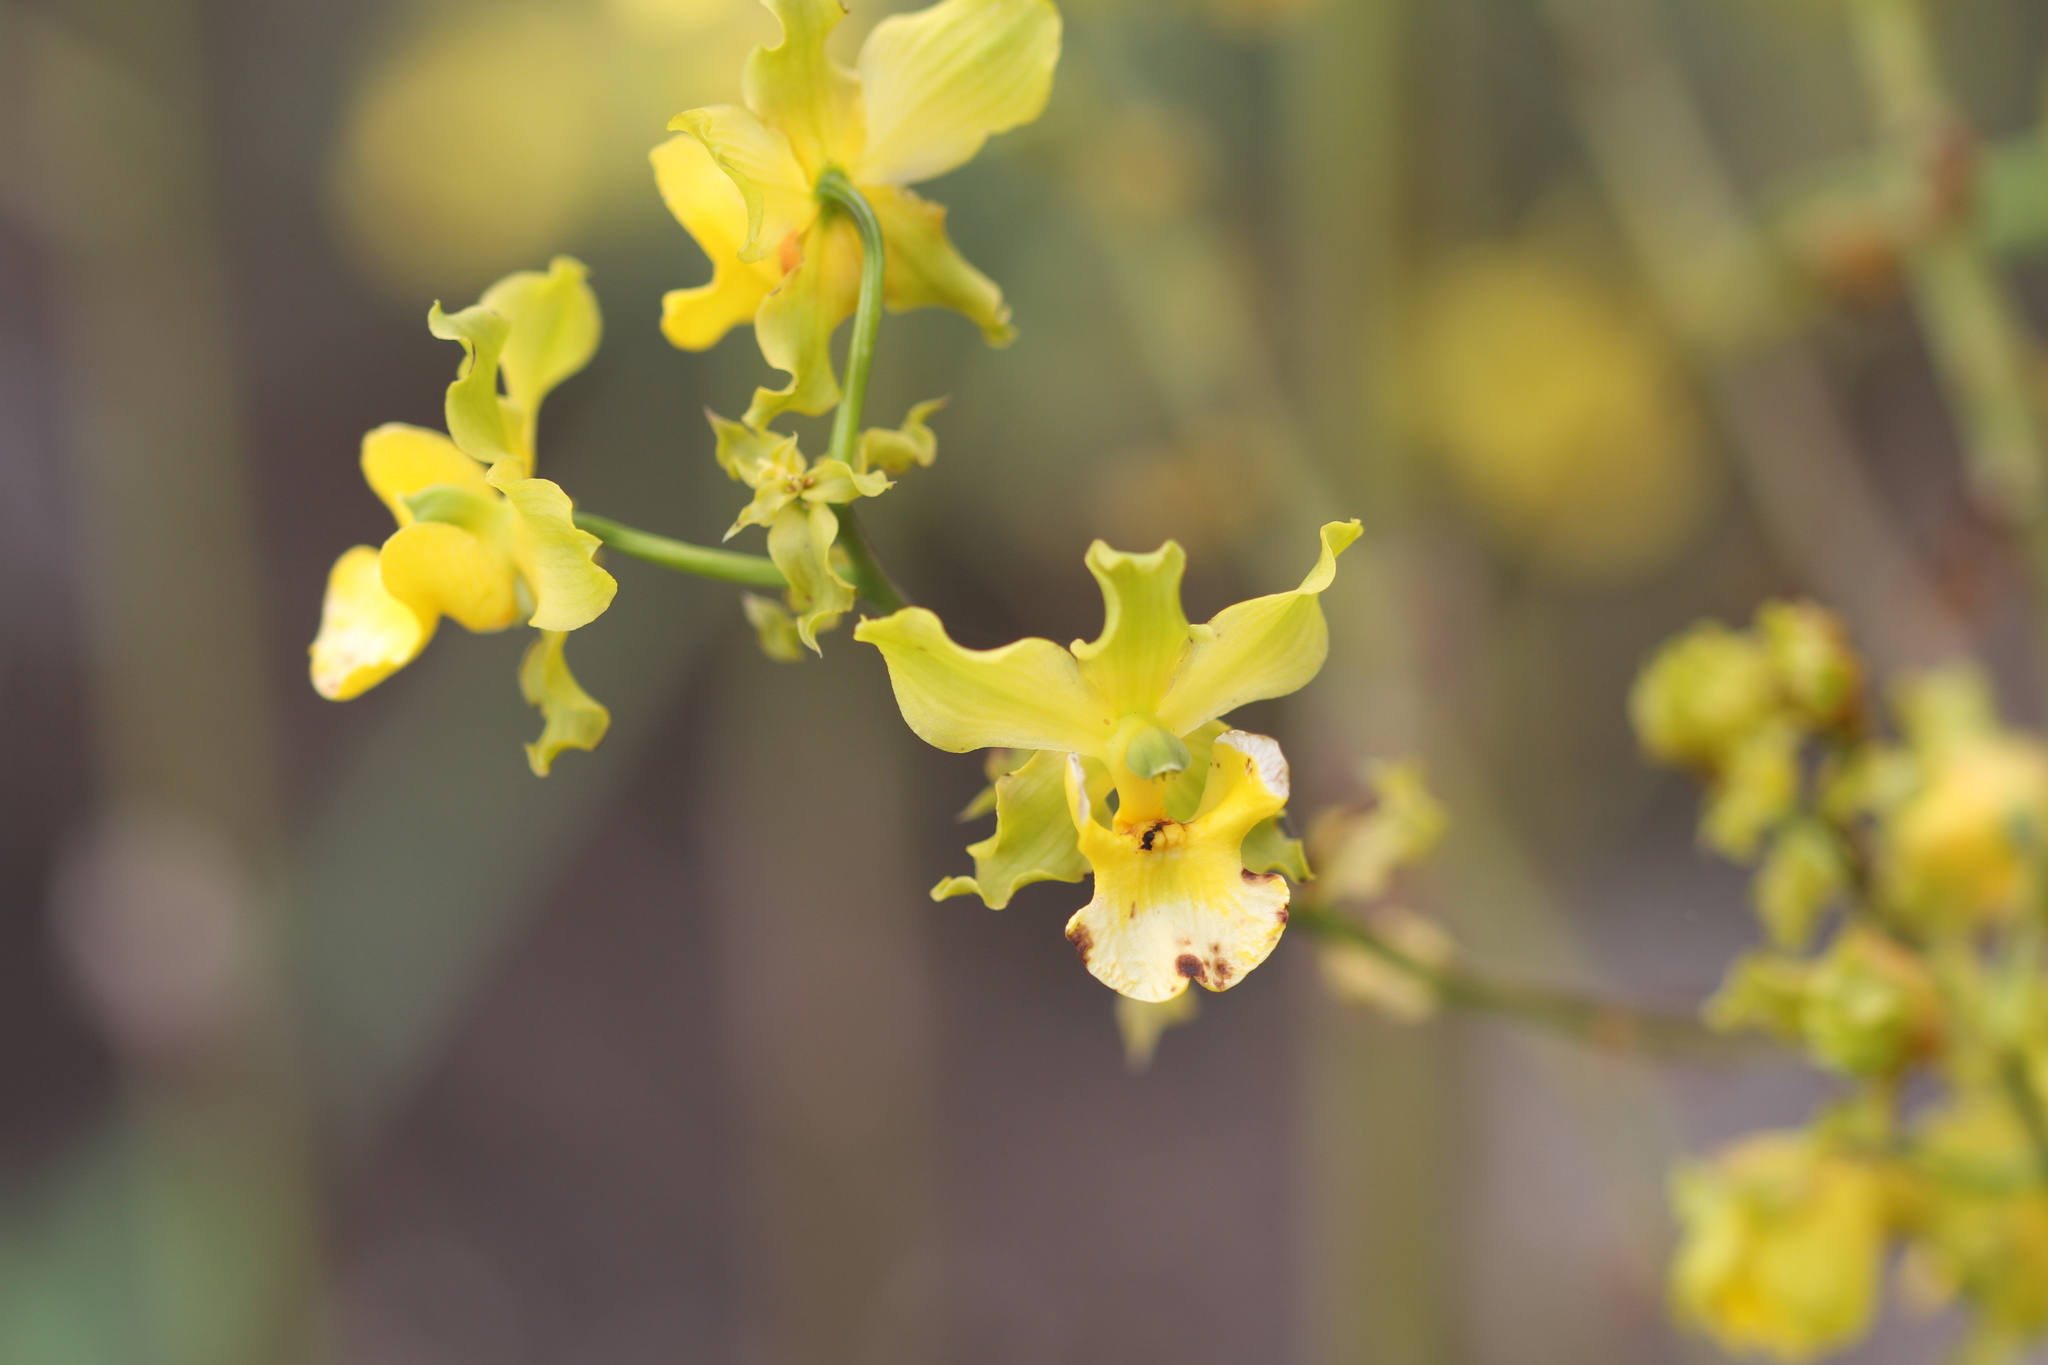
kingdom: Plantae
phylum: Tracheophyta
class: Liliopsida
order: Asparagales
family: Orchidaceae
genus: Cyrtopodium
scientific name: Cyrtopodium andersonii
